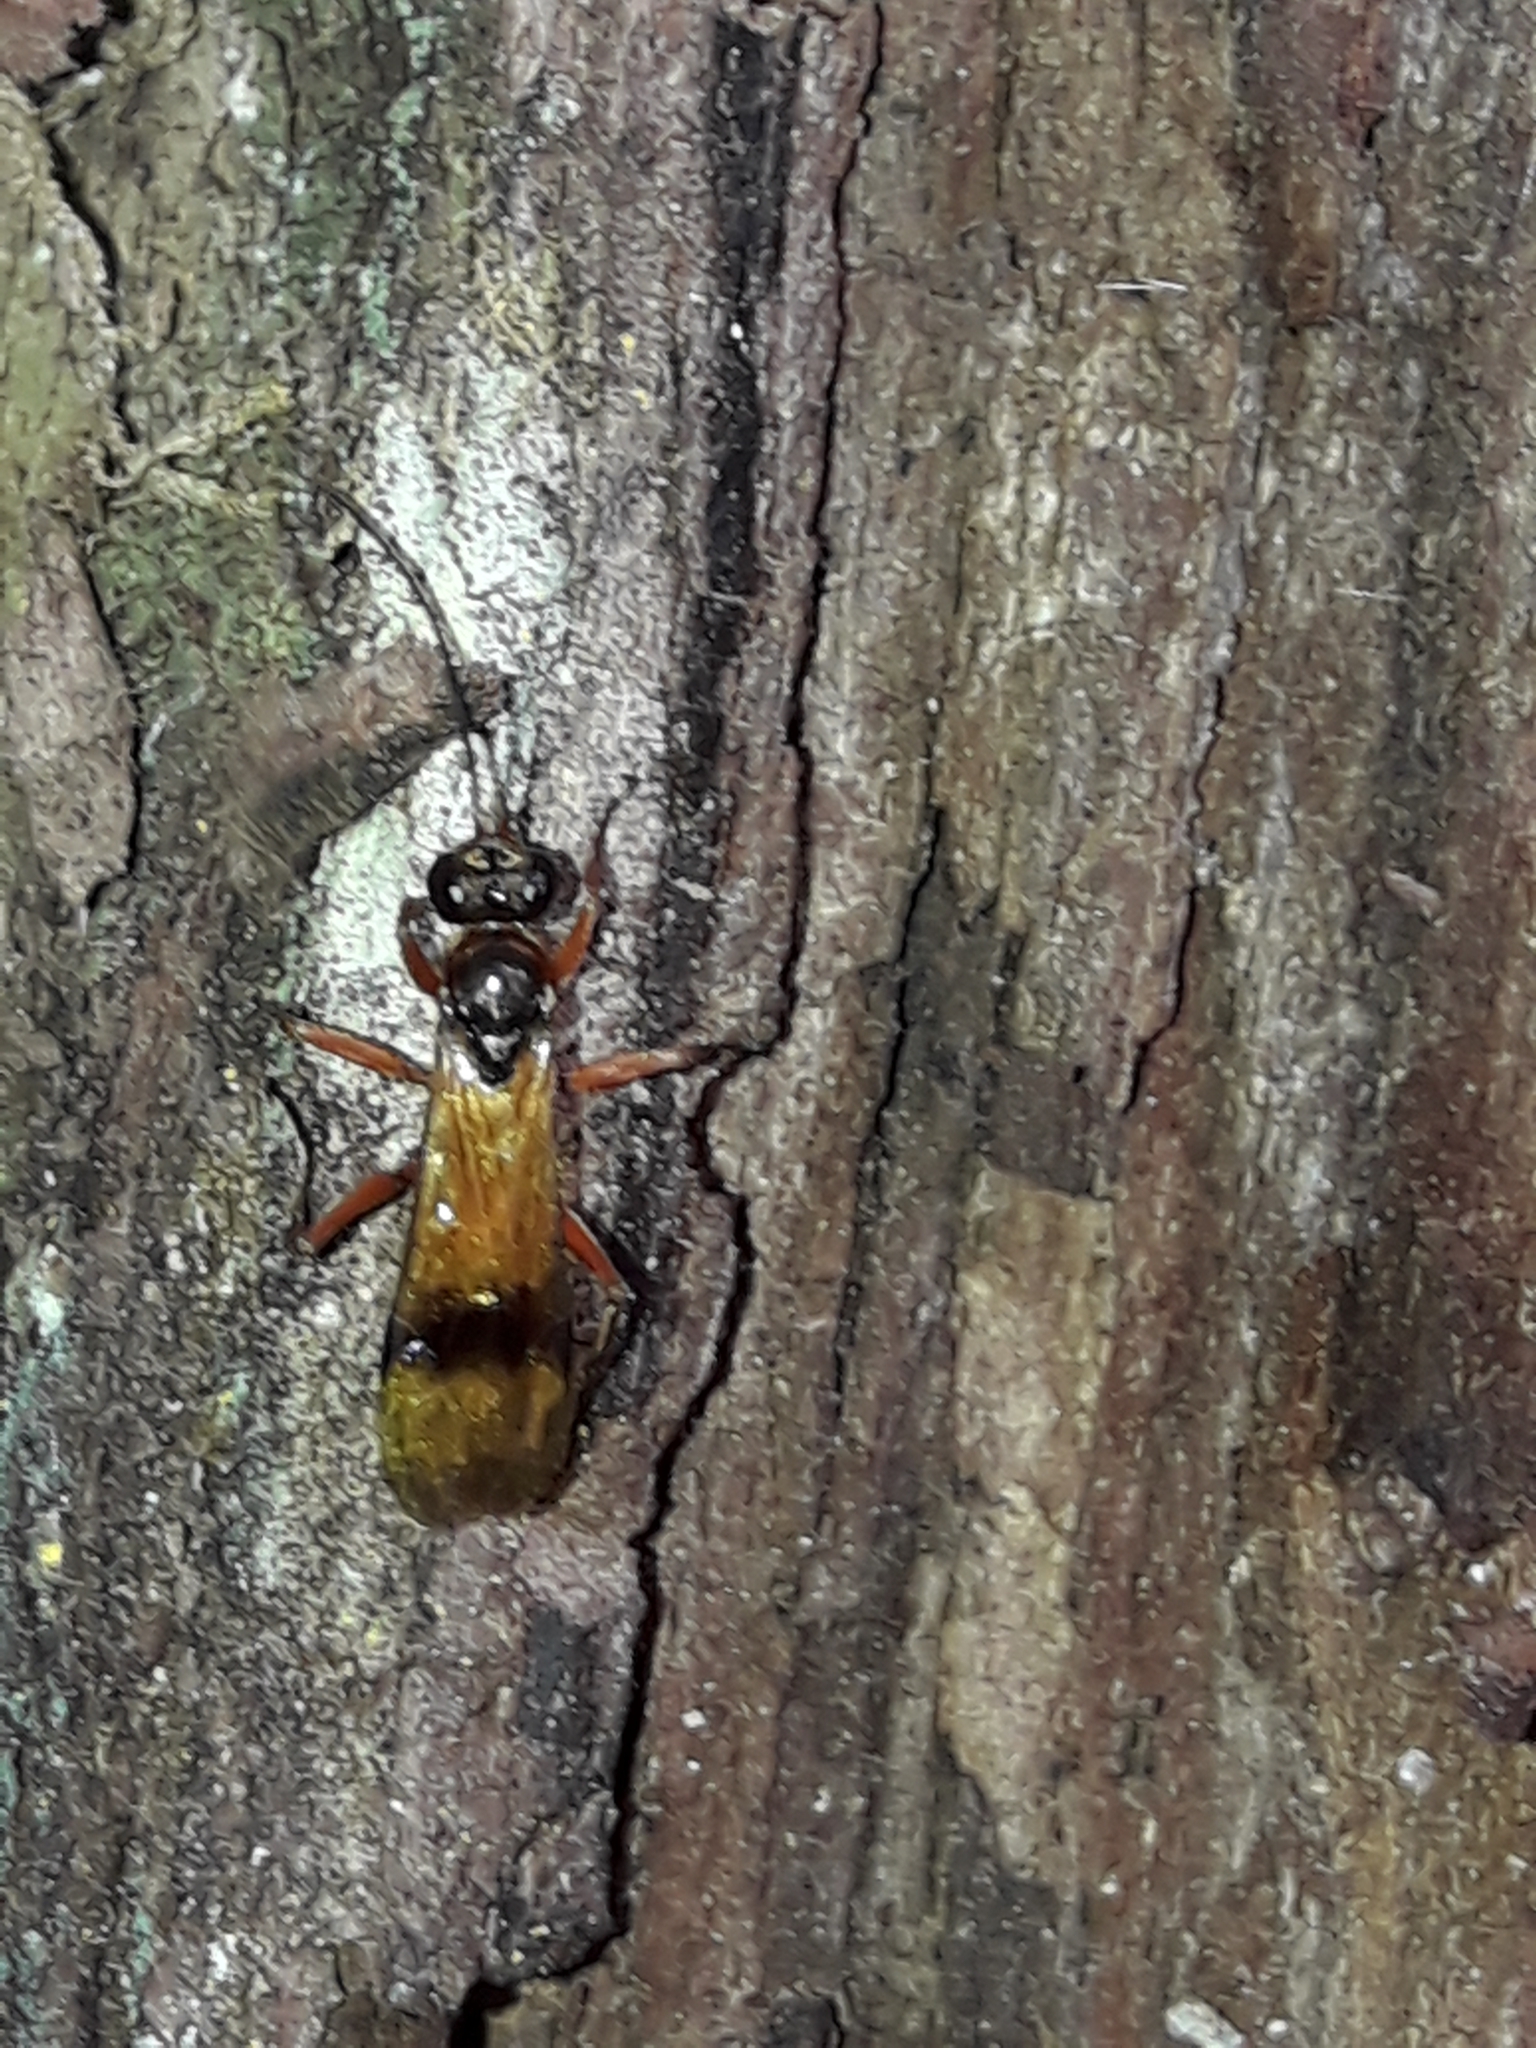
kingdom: Animalia
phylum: Arthropoda
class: Insecta
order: Hymenoptera
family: Pompilidae
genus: Sphictostethus
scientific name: Sphictostethus calvus
